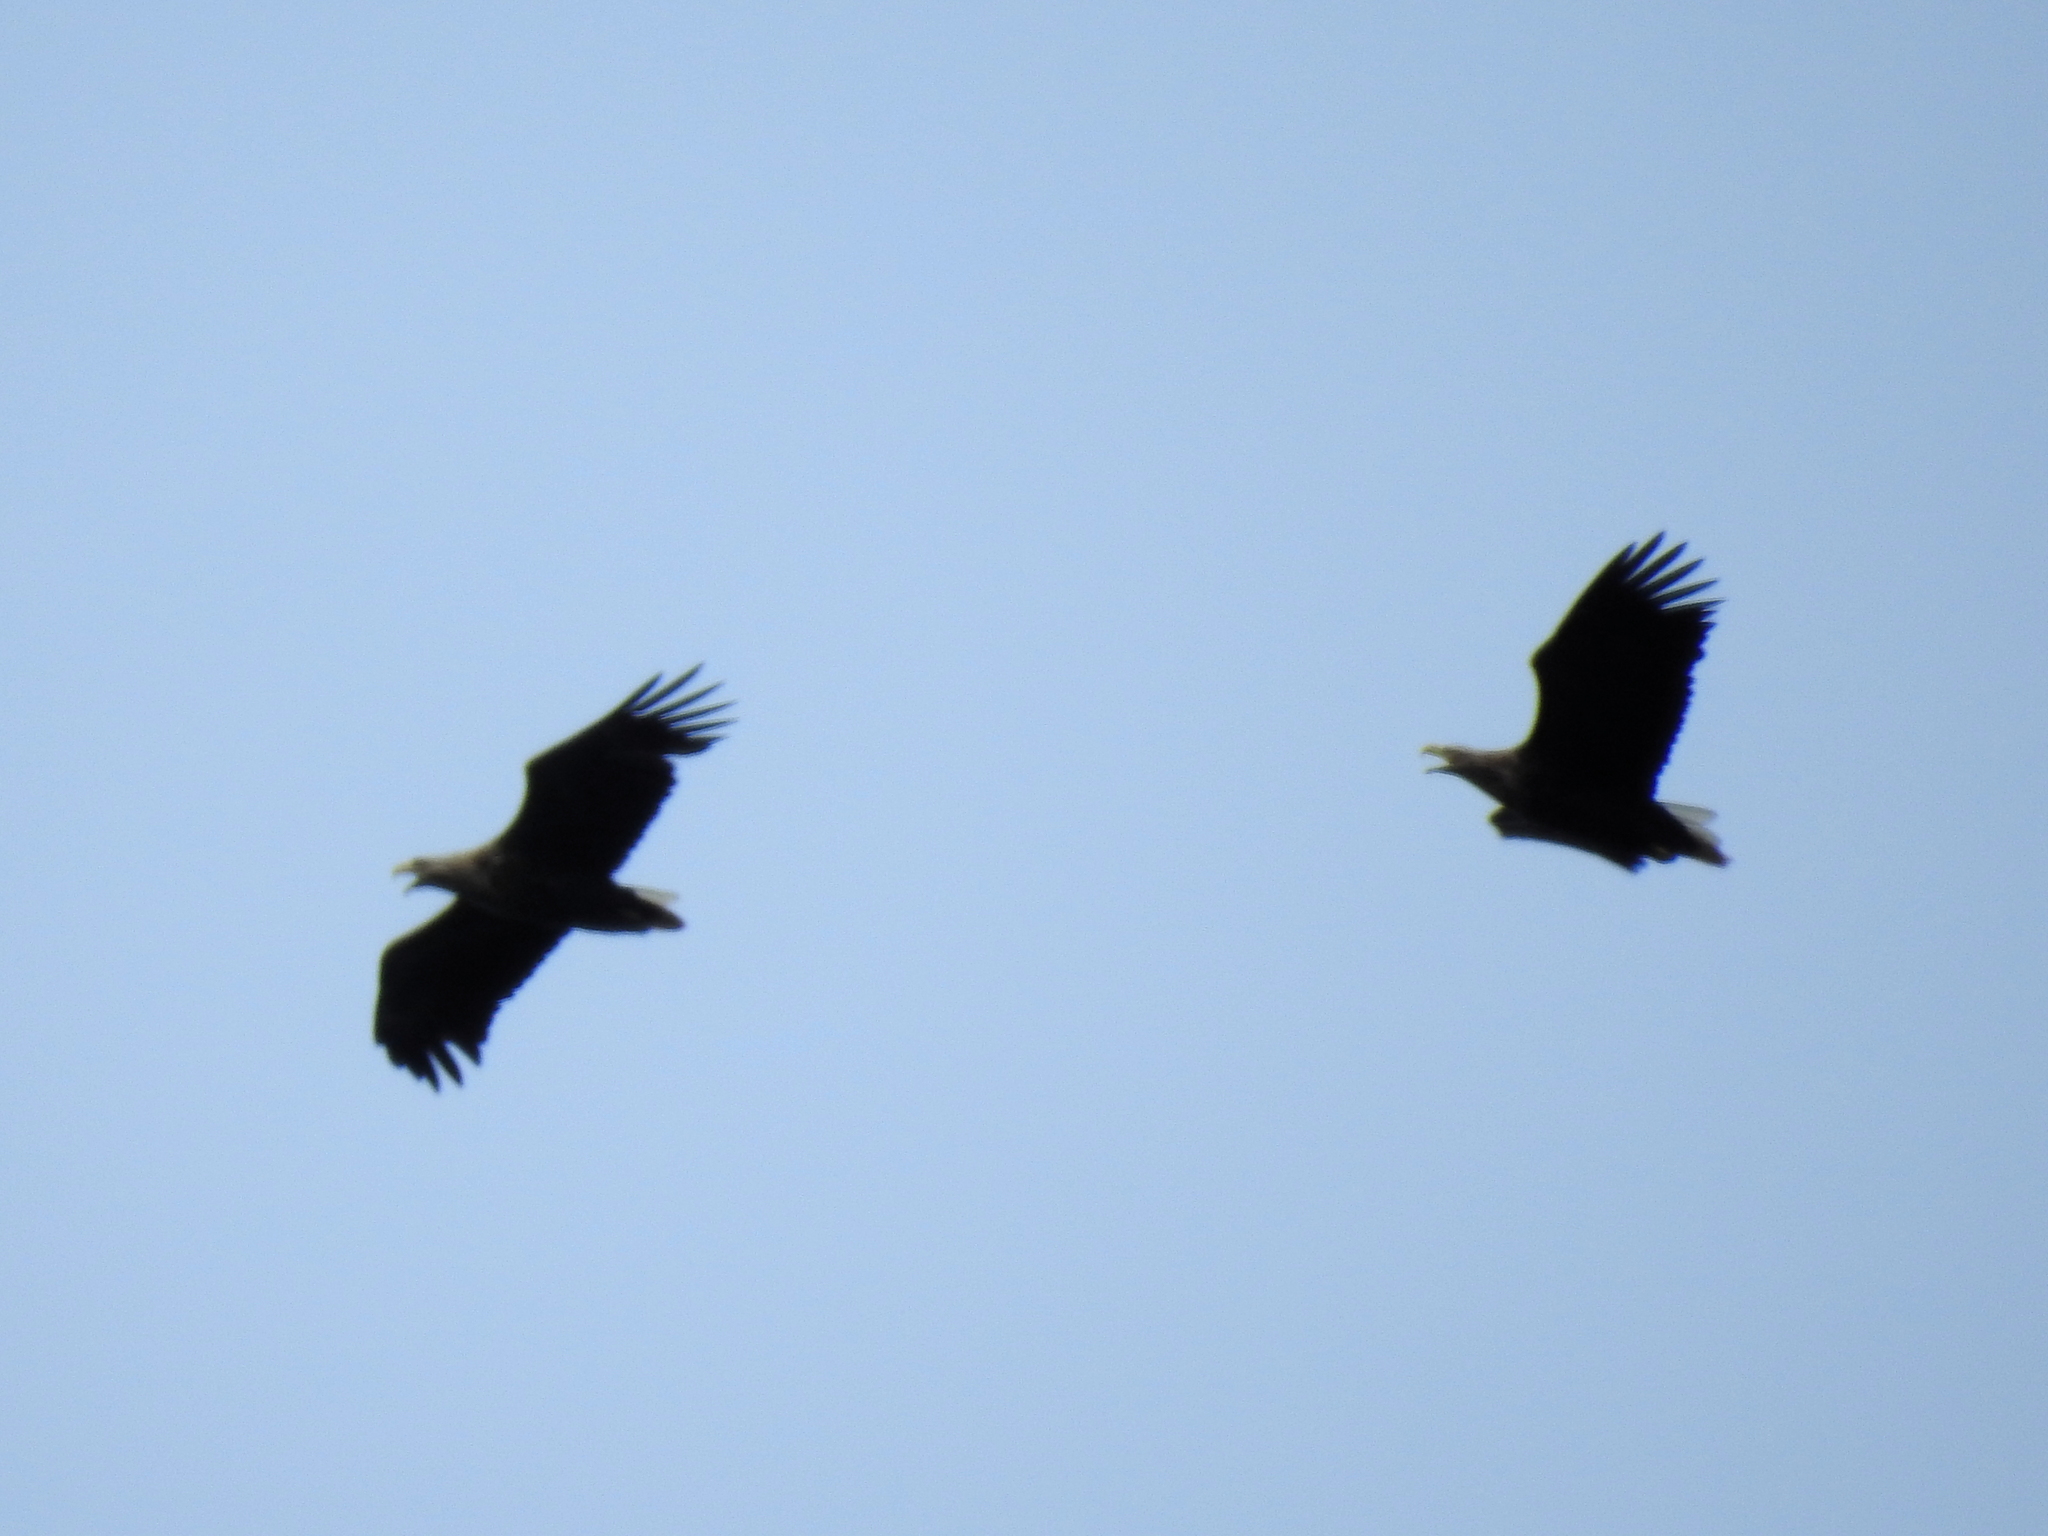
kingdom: Animalia
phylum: Chordata
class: Aves
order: Accipitriformes
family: Accipitridae
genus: Haliaeetus
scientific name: Haliaeetus albicilla
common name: White-tailed eagle
